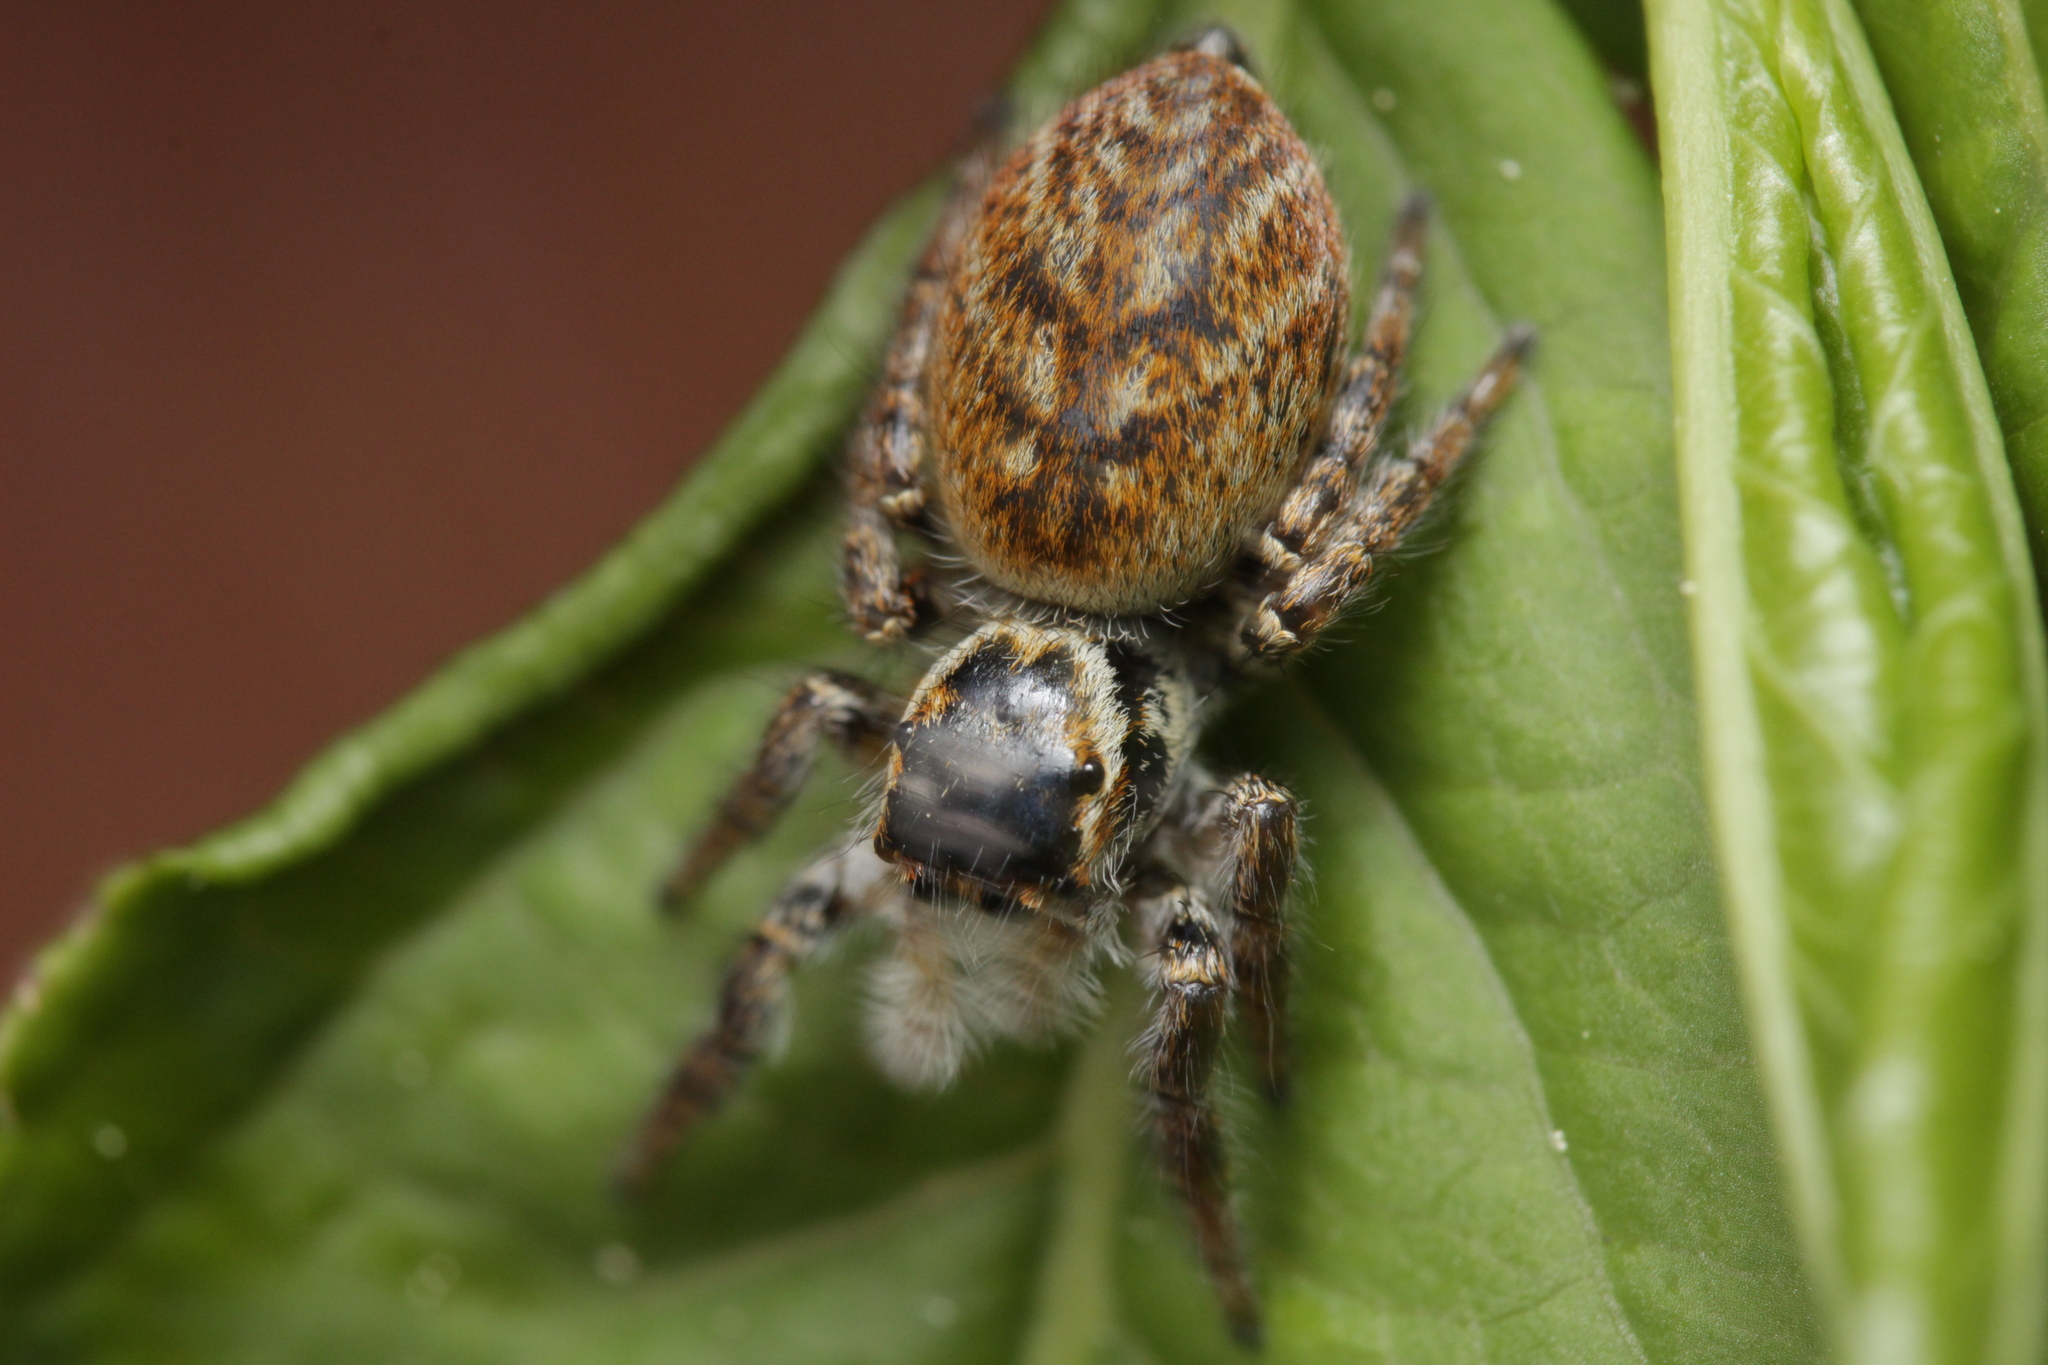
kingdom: Animalia
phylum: Arthropoda
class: Arachnida
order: Araneae
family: Salticidae
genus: Carrhotus
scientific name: Carrhotus xanthogramma
